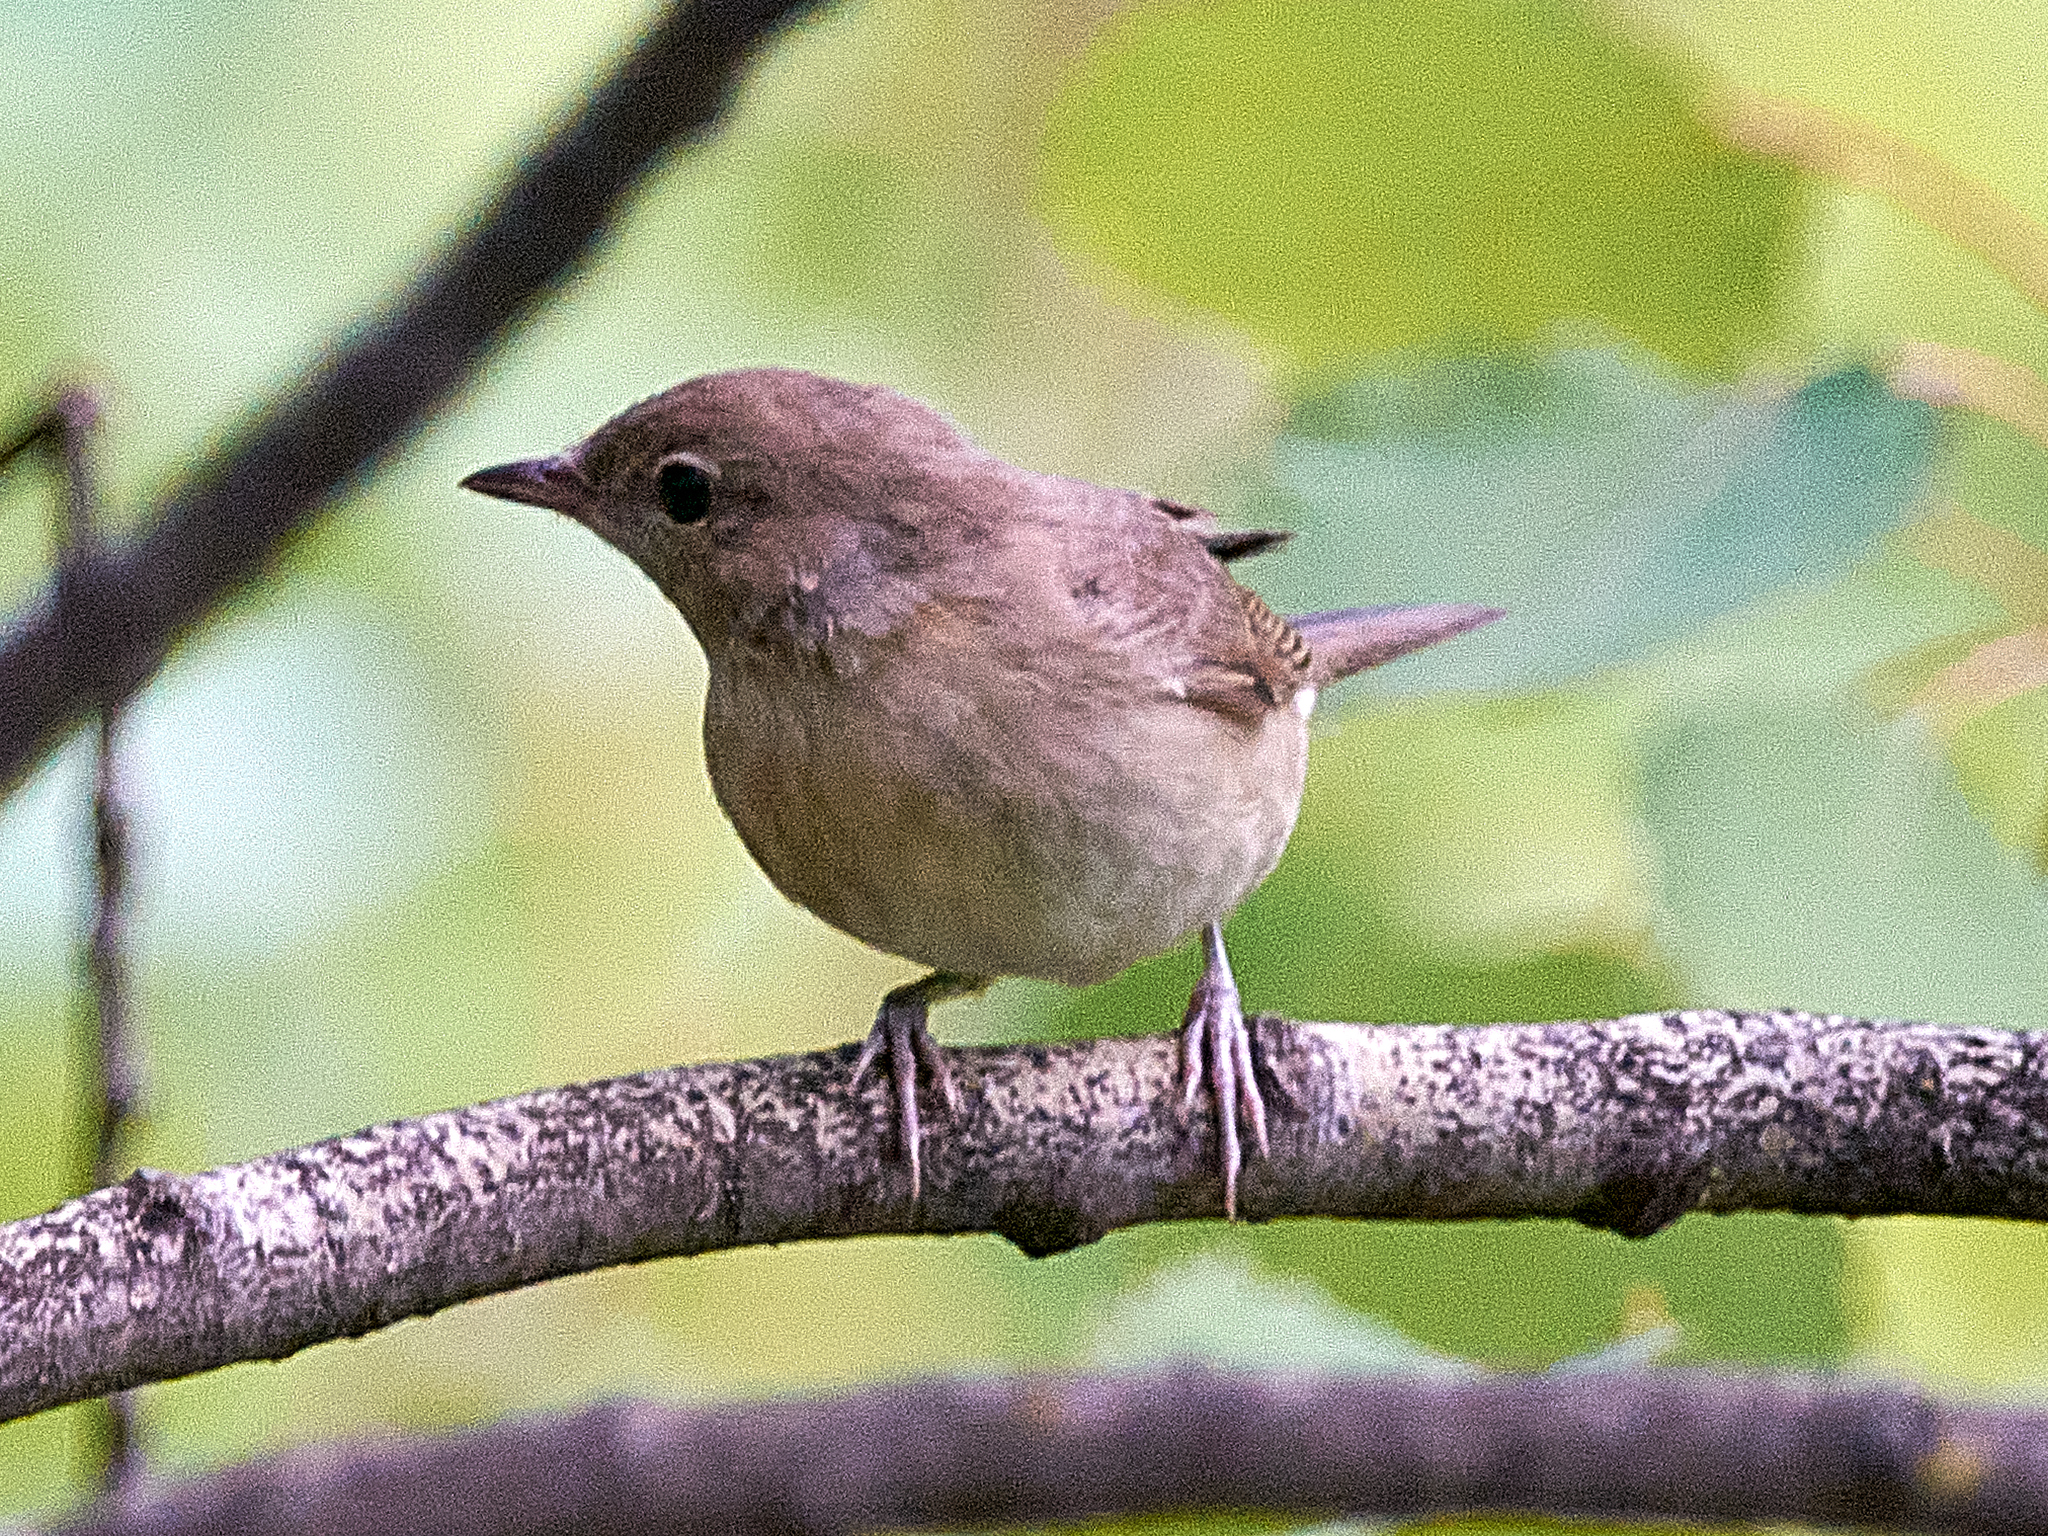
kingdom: Animalia
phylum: Chordata
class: Aves
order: Passeriformes
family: Sylviidae
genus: Sylvia
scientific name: Sylvia borin
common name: Garden warbler
